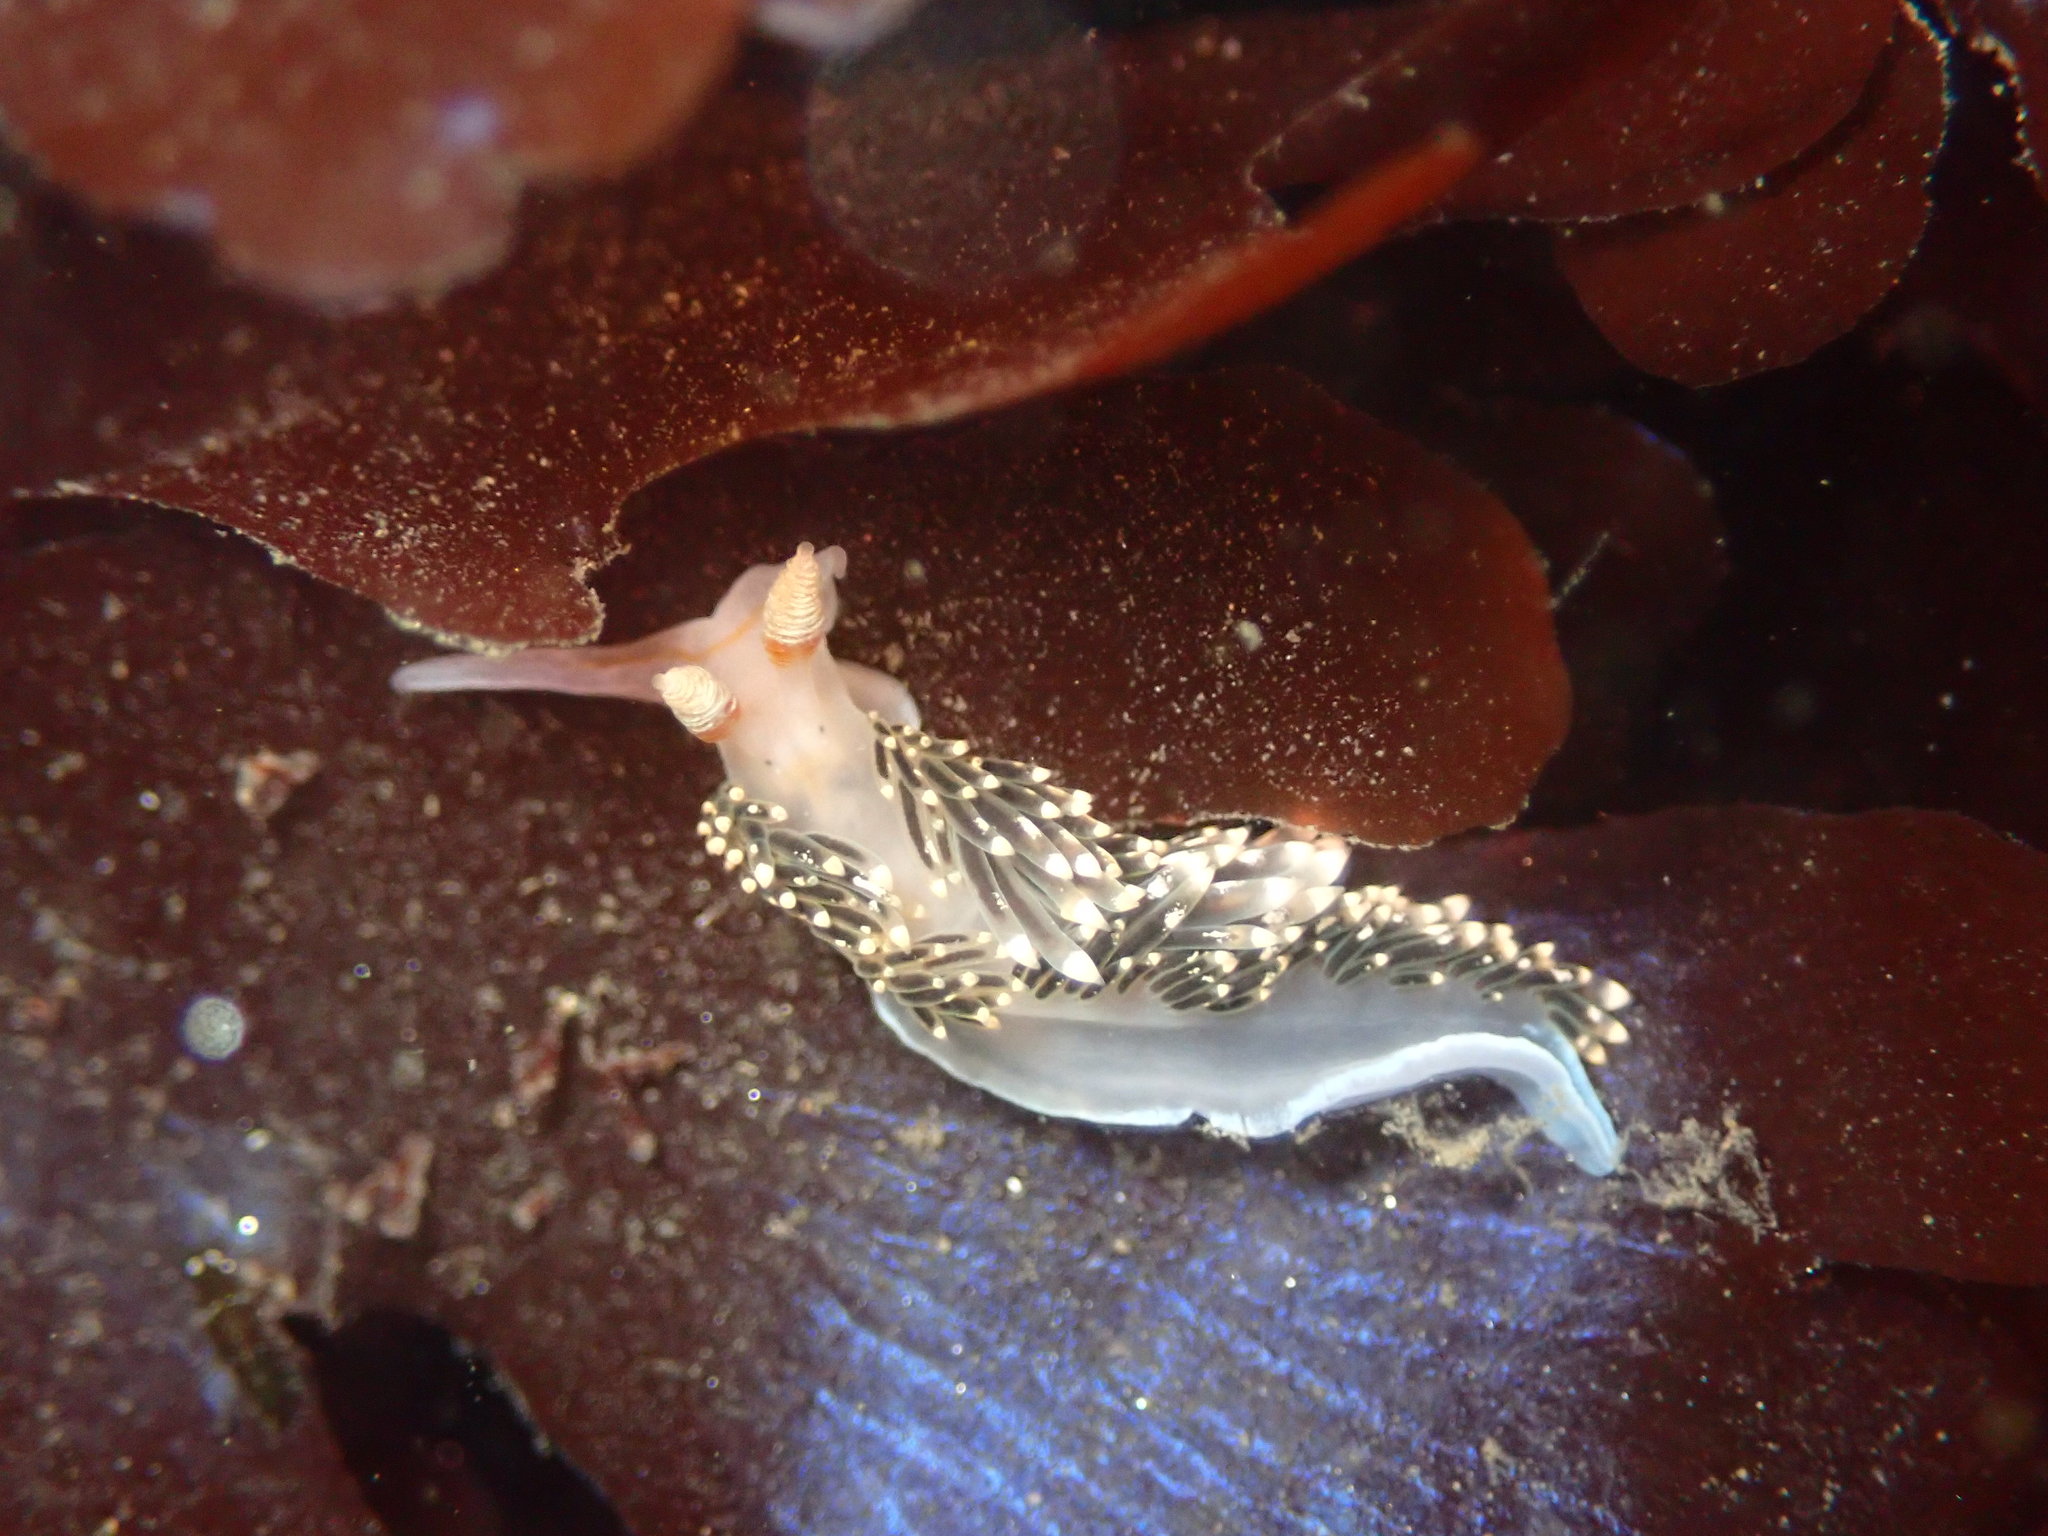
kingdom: Animalia
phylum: Mollusca
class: Gastropoda
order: Nudibranchia
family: Facelinidae
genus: Phidiana
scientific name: Phidiana hiltoni
